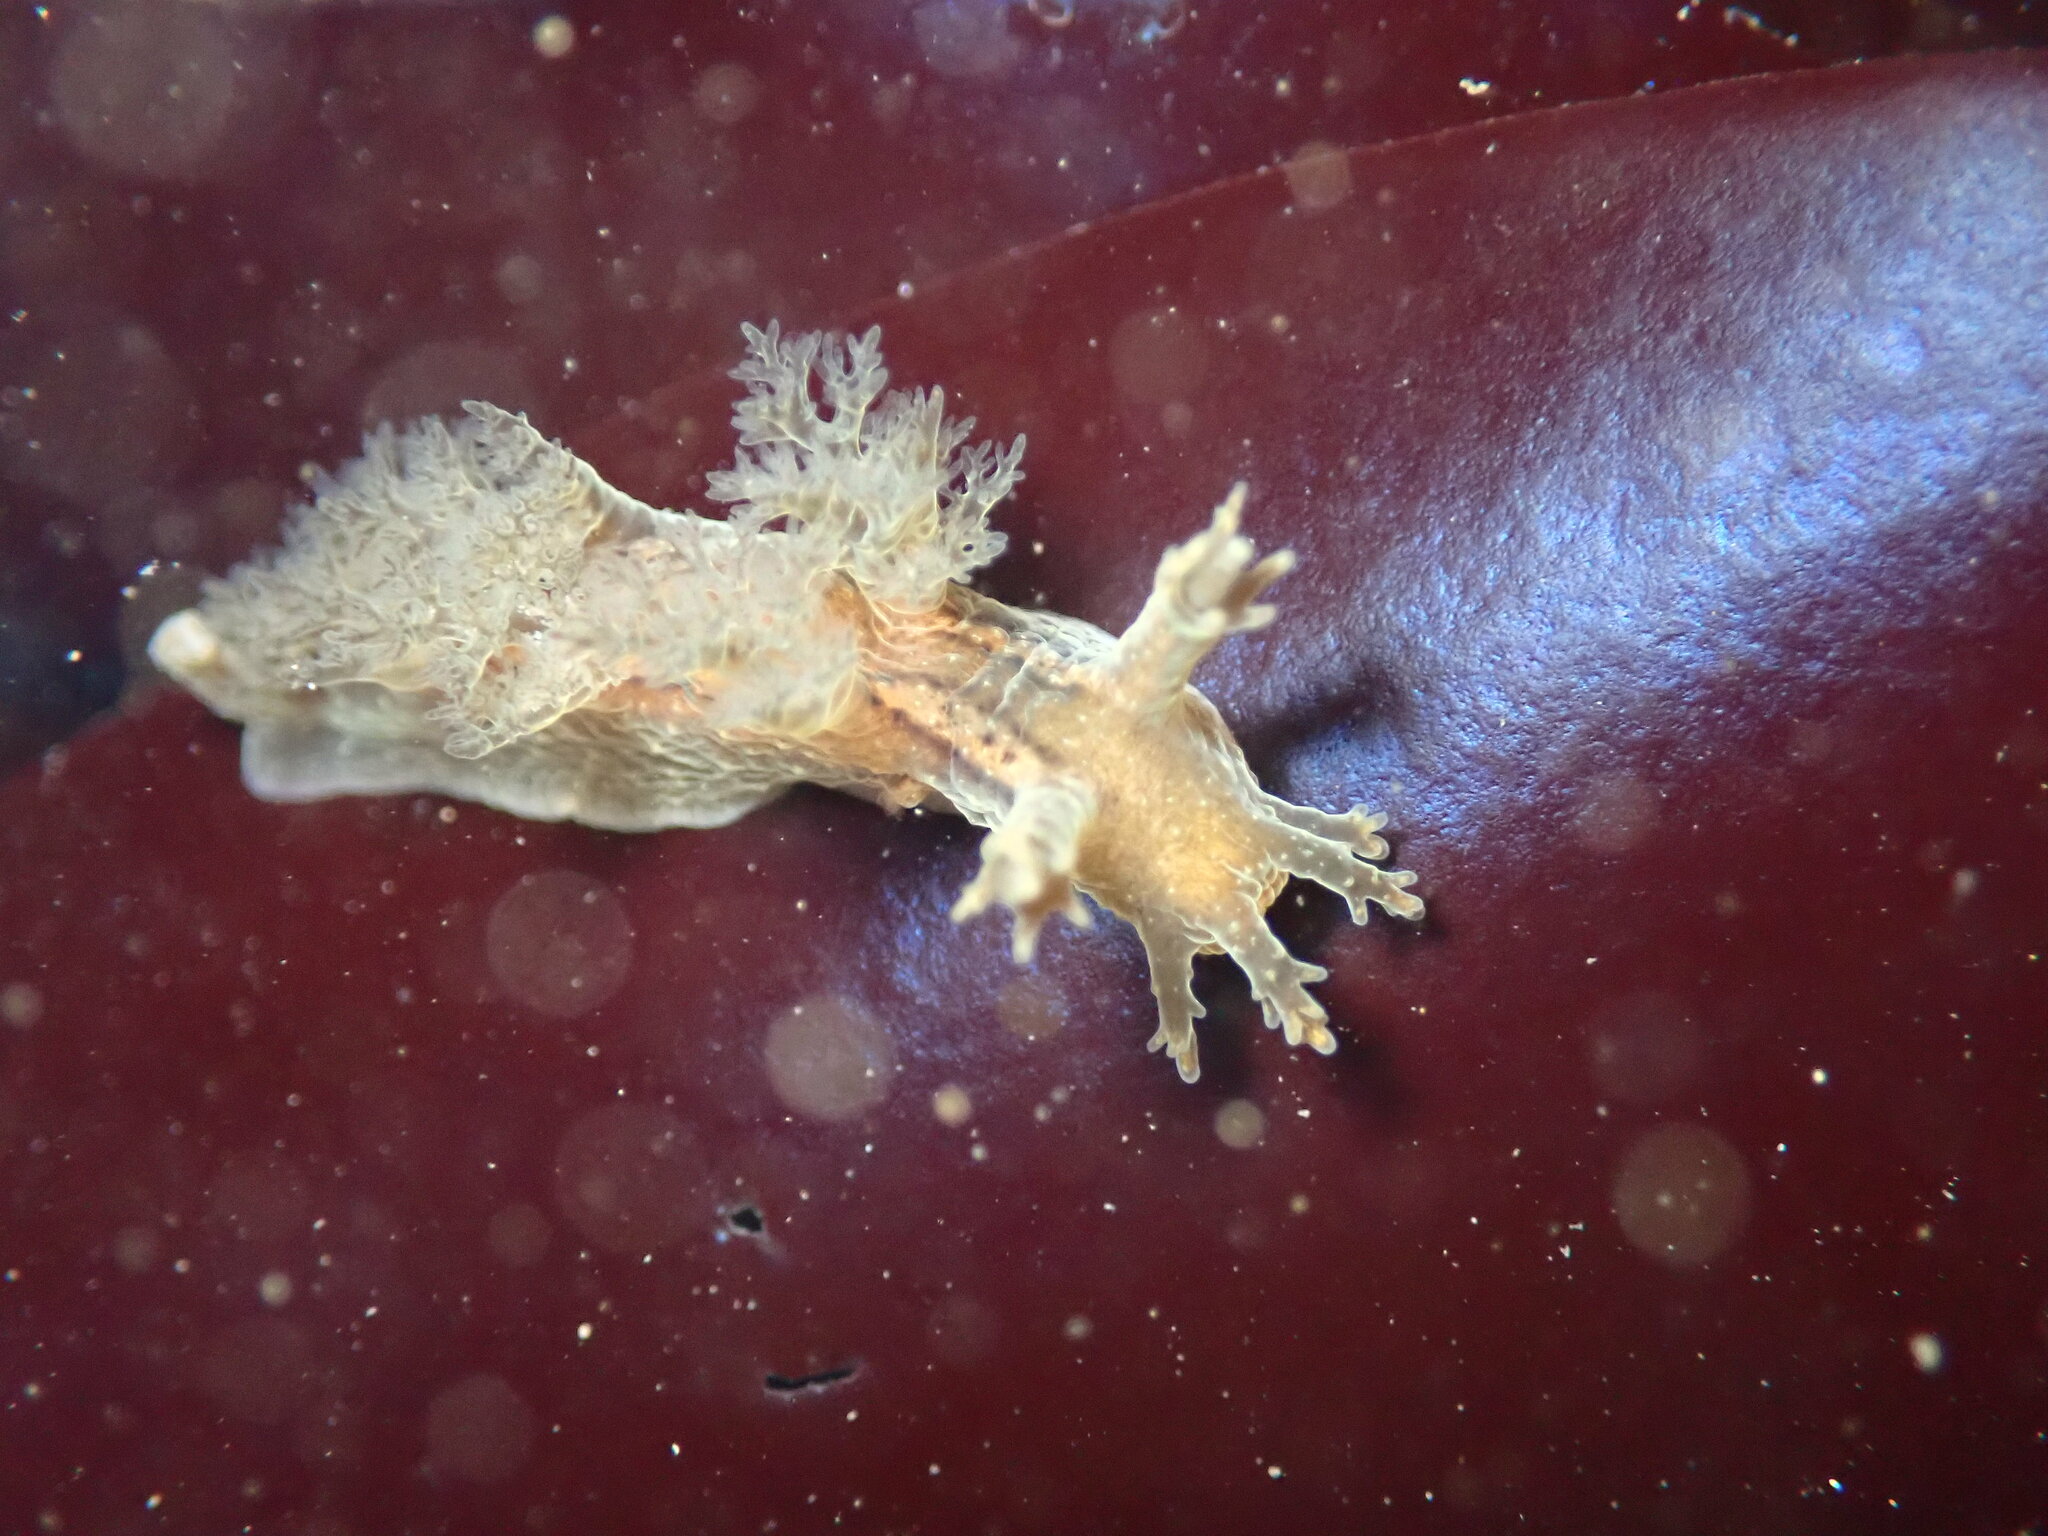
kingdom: Animalia
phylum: Mollusca
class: Gastropoda
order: Nudibranchia
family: Dendronotidae
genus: Dendronotus
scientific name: Dendronotus subramosus
